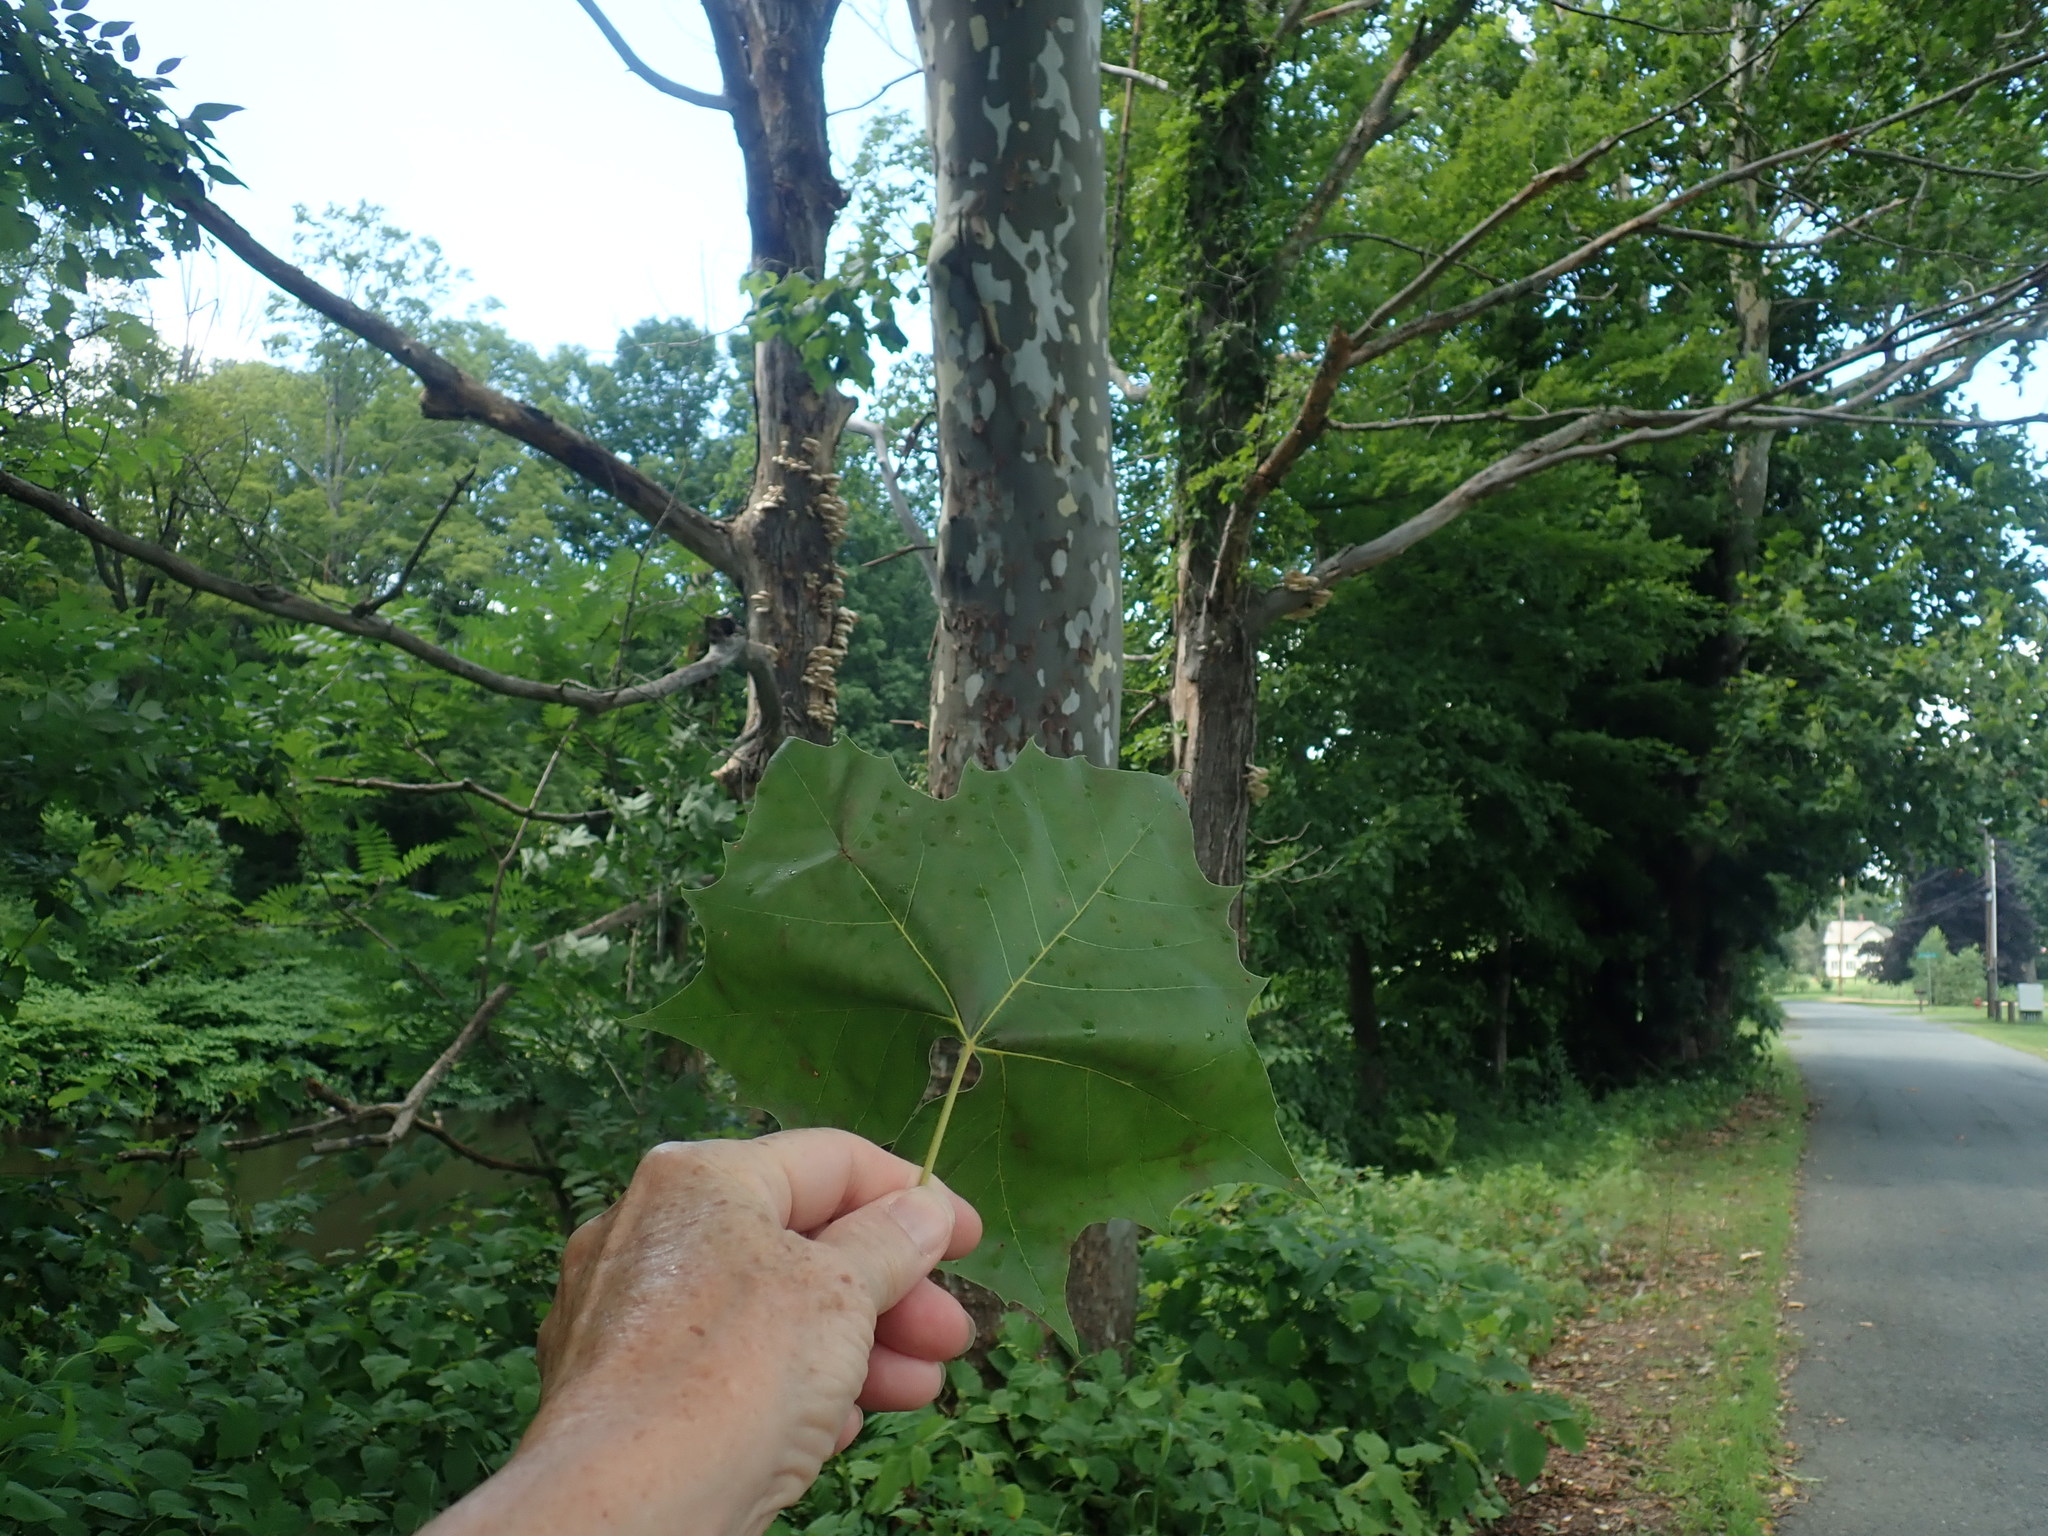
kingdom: Plantae
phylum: Tracheophyta
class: Magnoliopsida
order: Proteales
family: Platanaceae
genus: Platanus
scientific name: Platanus occidentalis
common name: American sycamore
